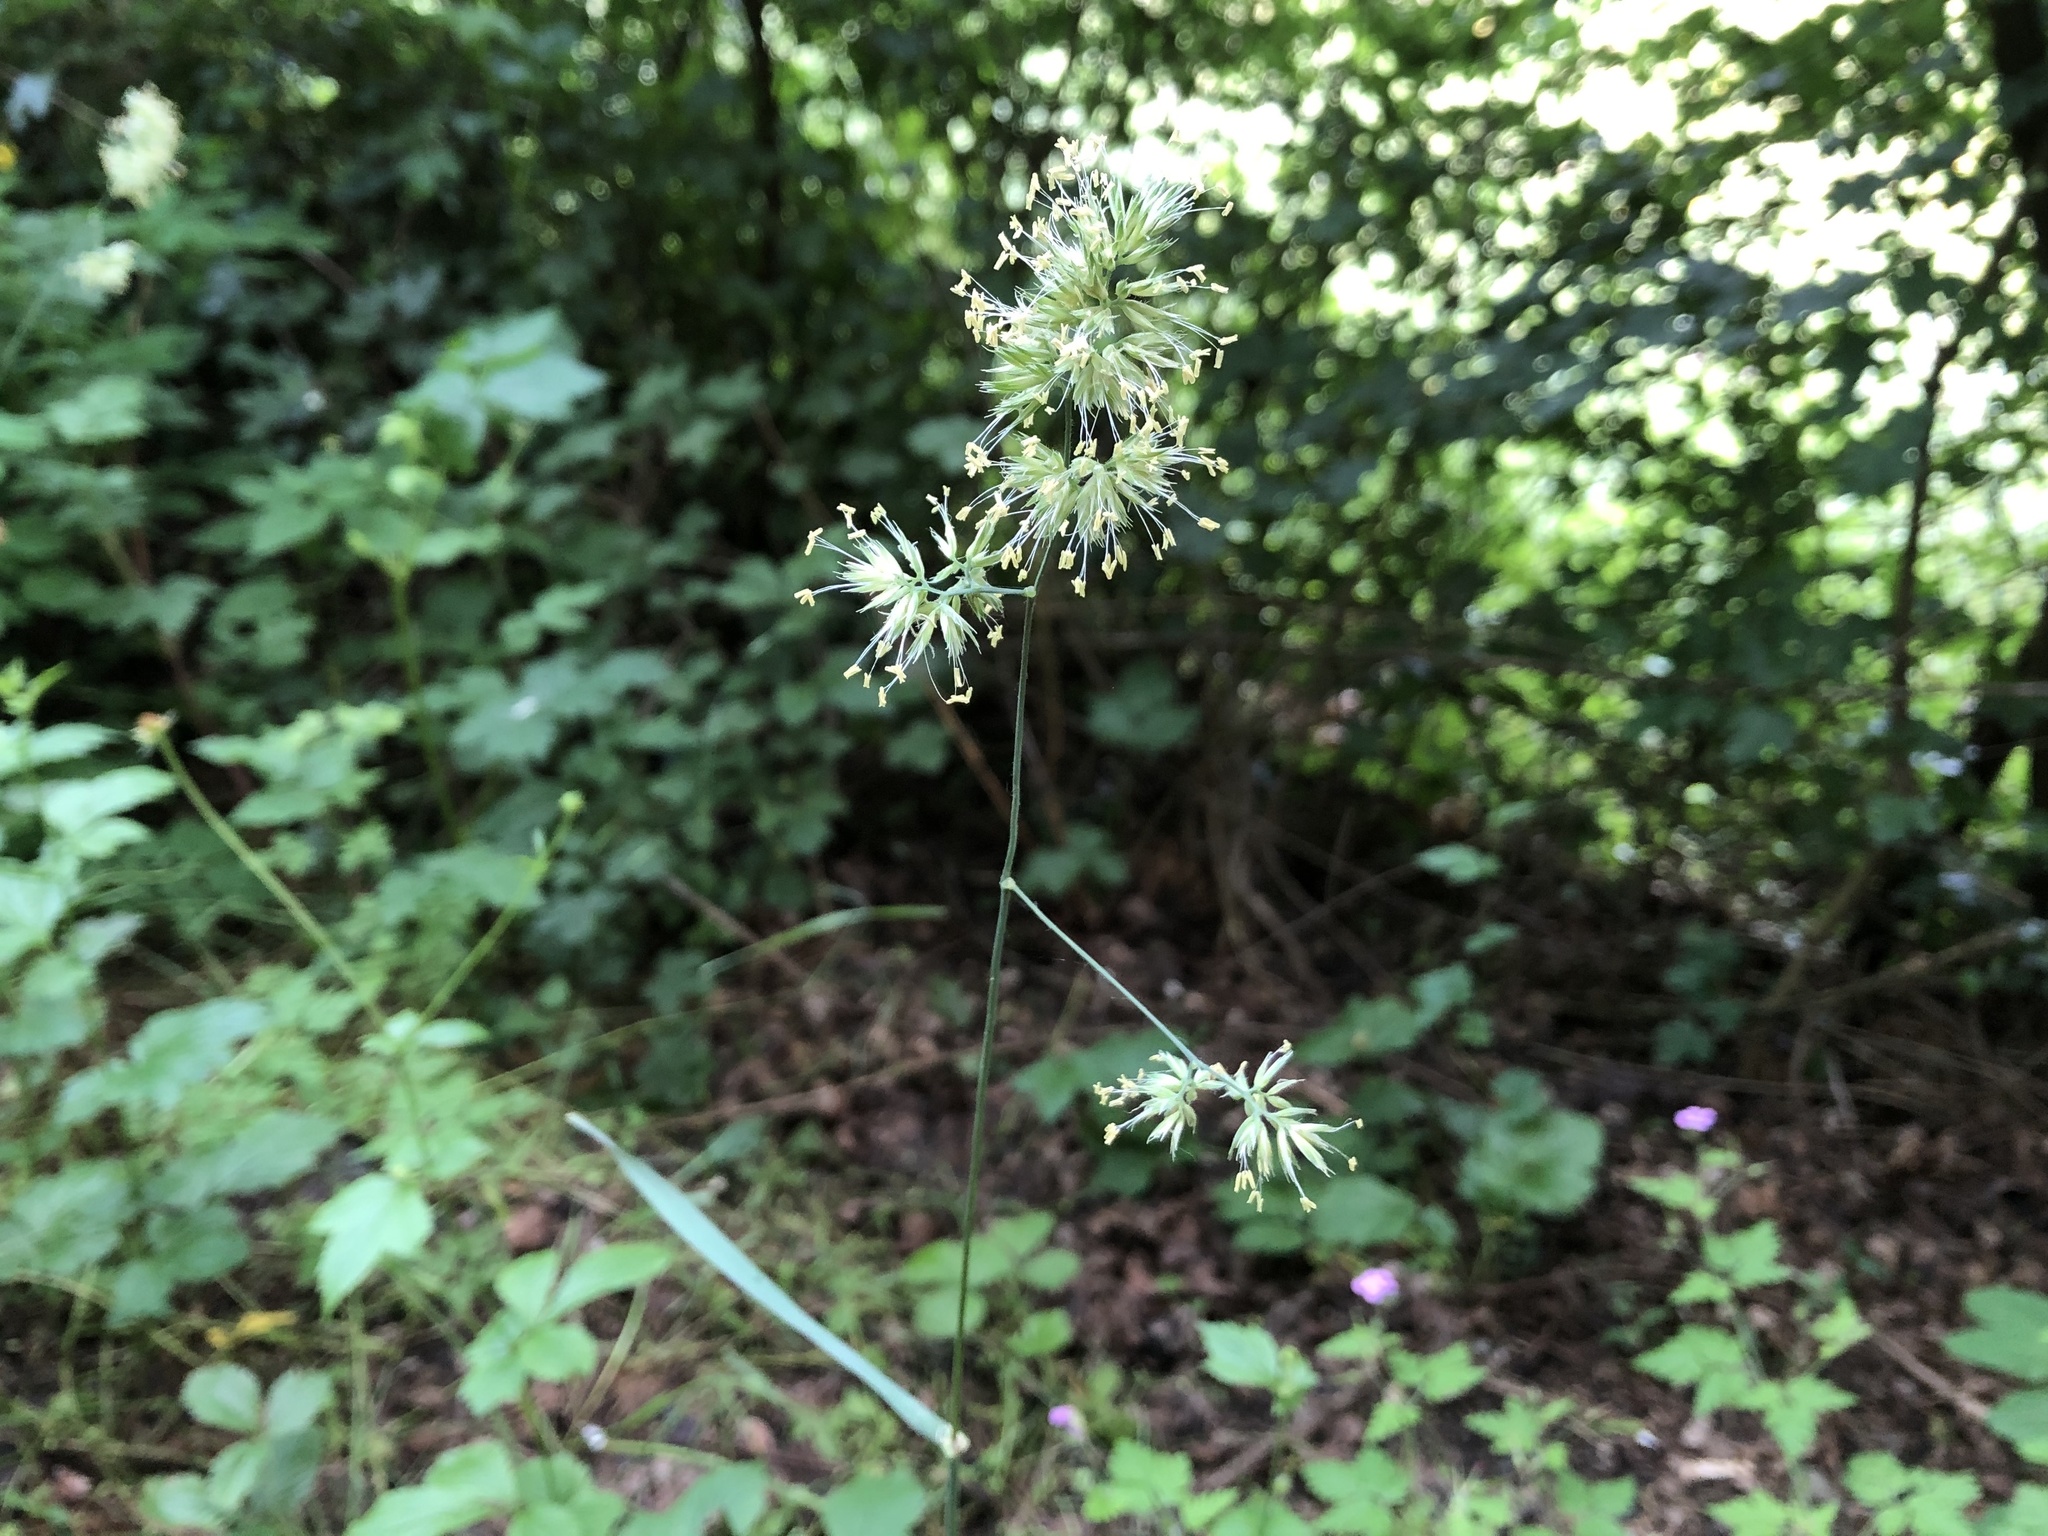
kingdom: Plantae
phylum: Tracheophyta
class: Liliopsida
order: Poales
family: Poaceae
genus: Dactylis
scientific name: Dactylis glomerata
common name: Orchardgrass
